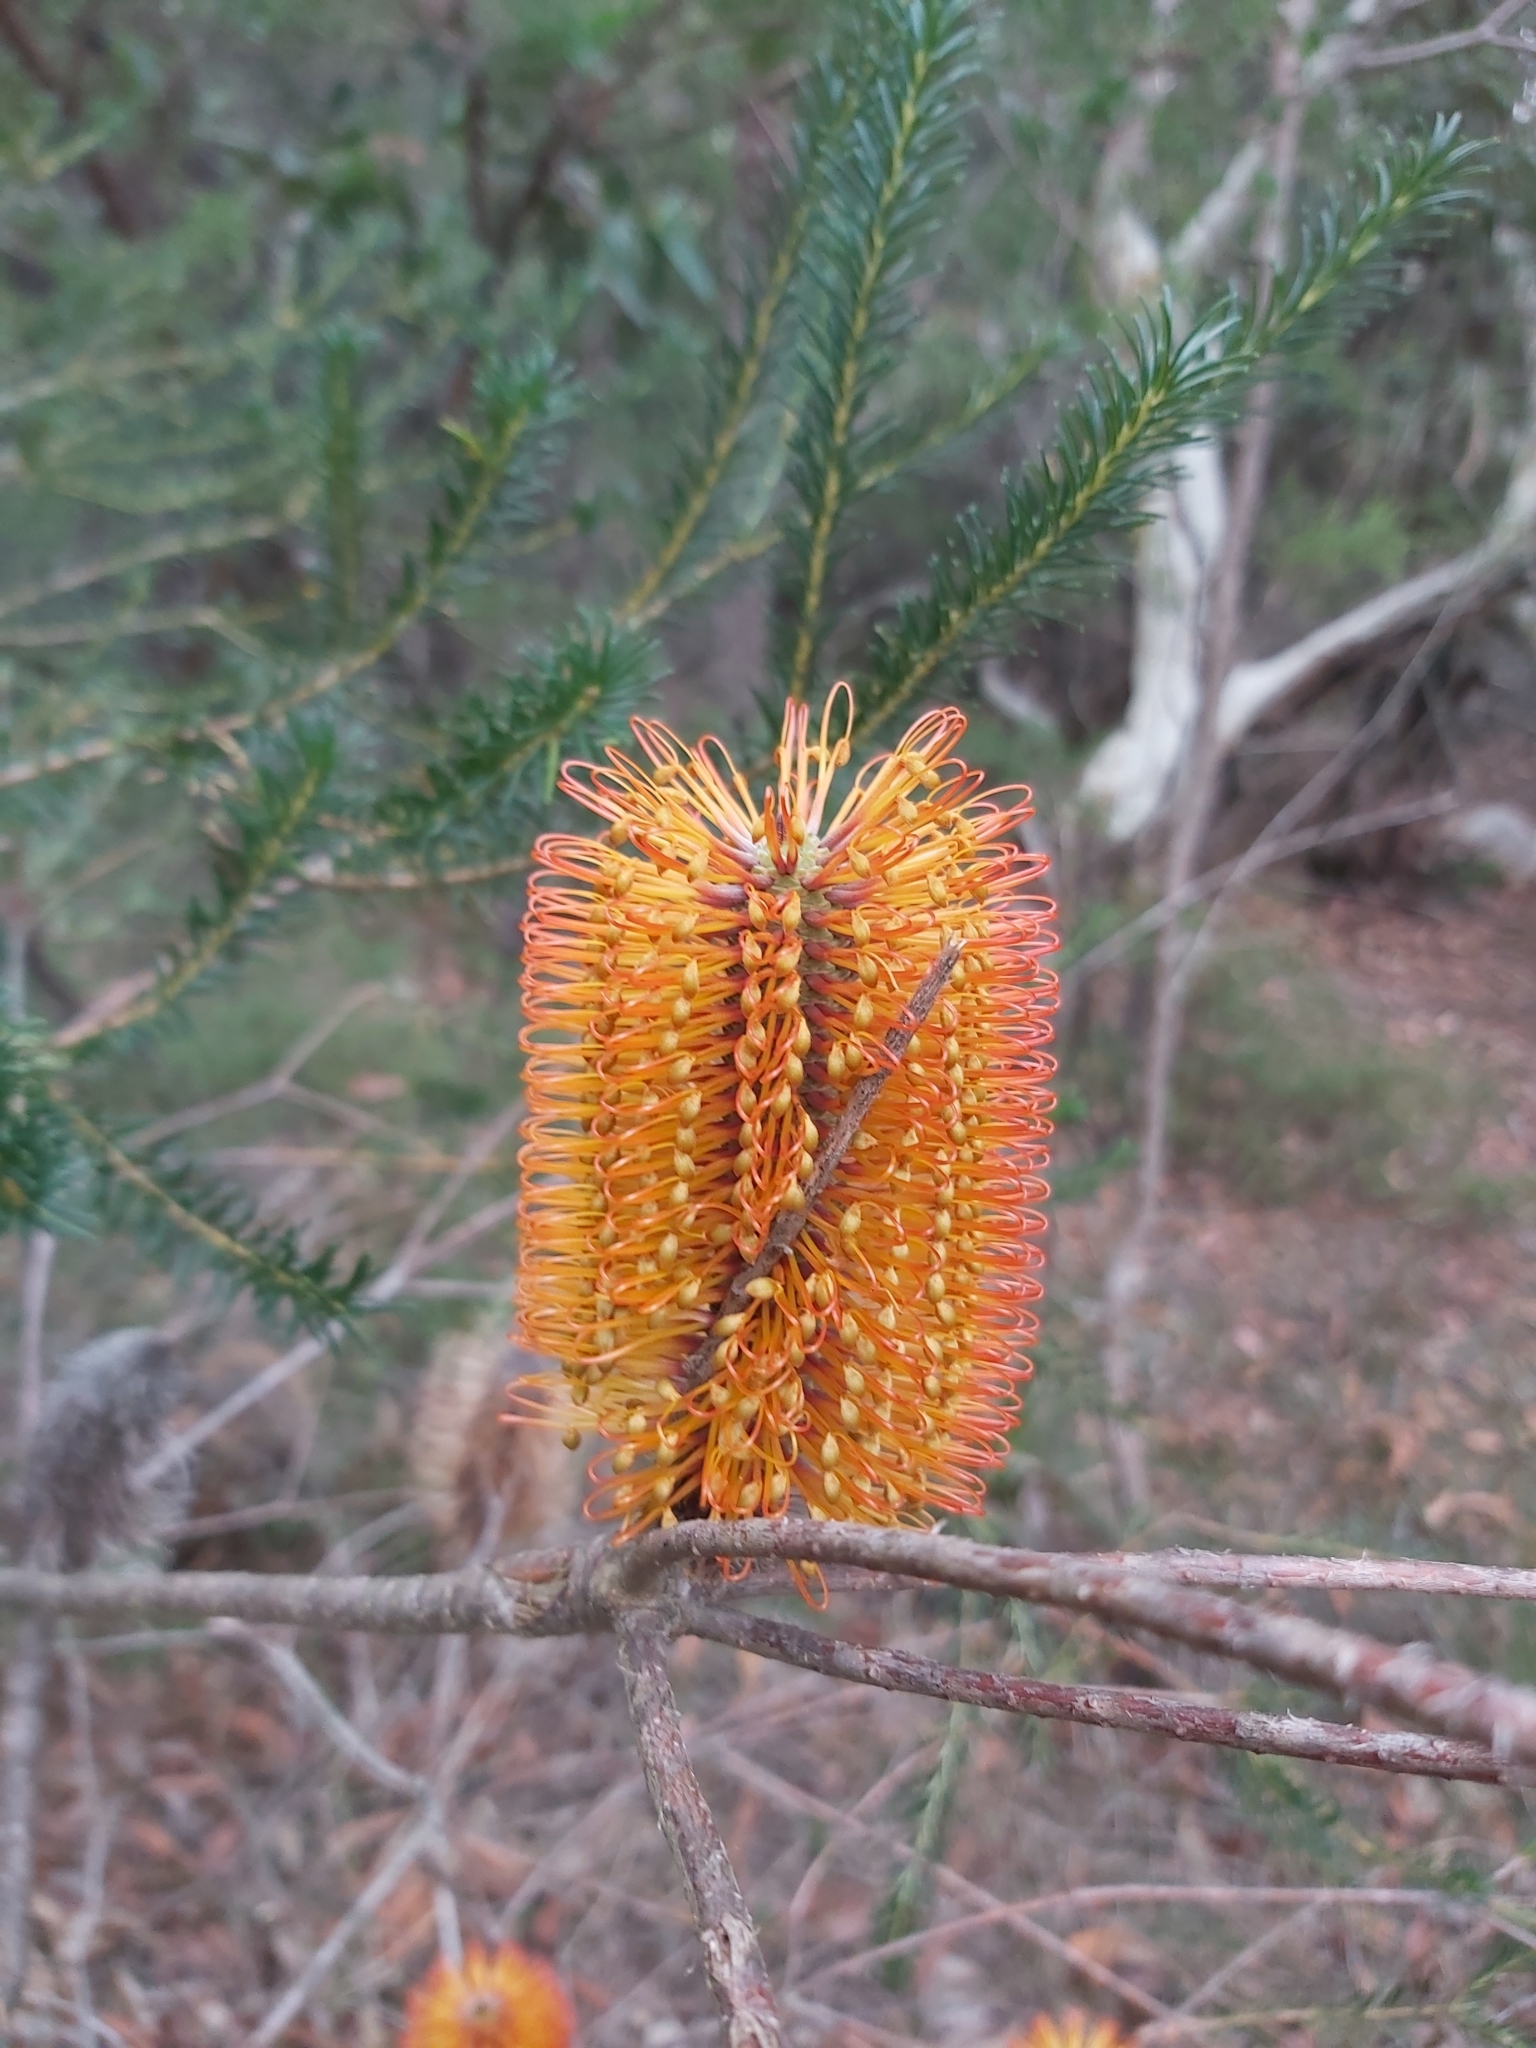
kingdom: Plantae
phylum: Tracheophyta
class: Magnoliopsida
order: Proteales
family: Proteaceae
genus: Banksia
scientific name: Banksia ericifolia
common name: Heath-leaf banksia
